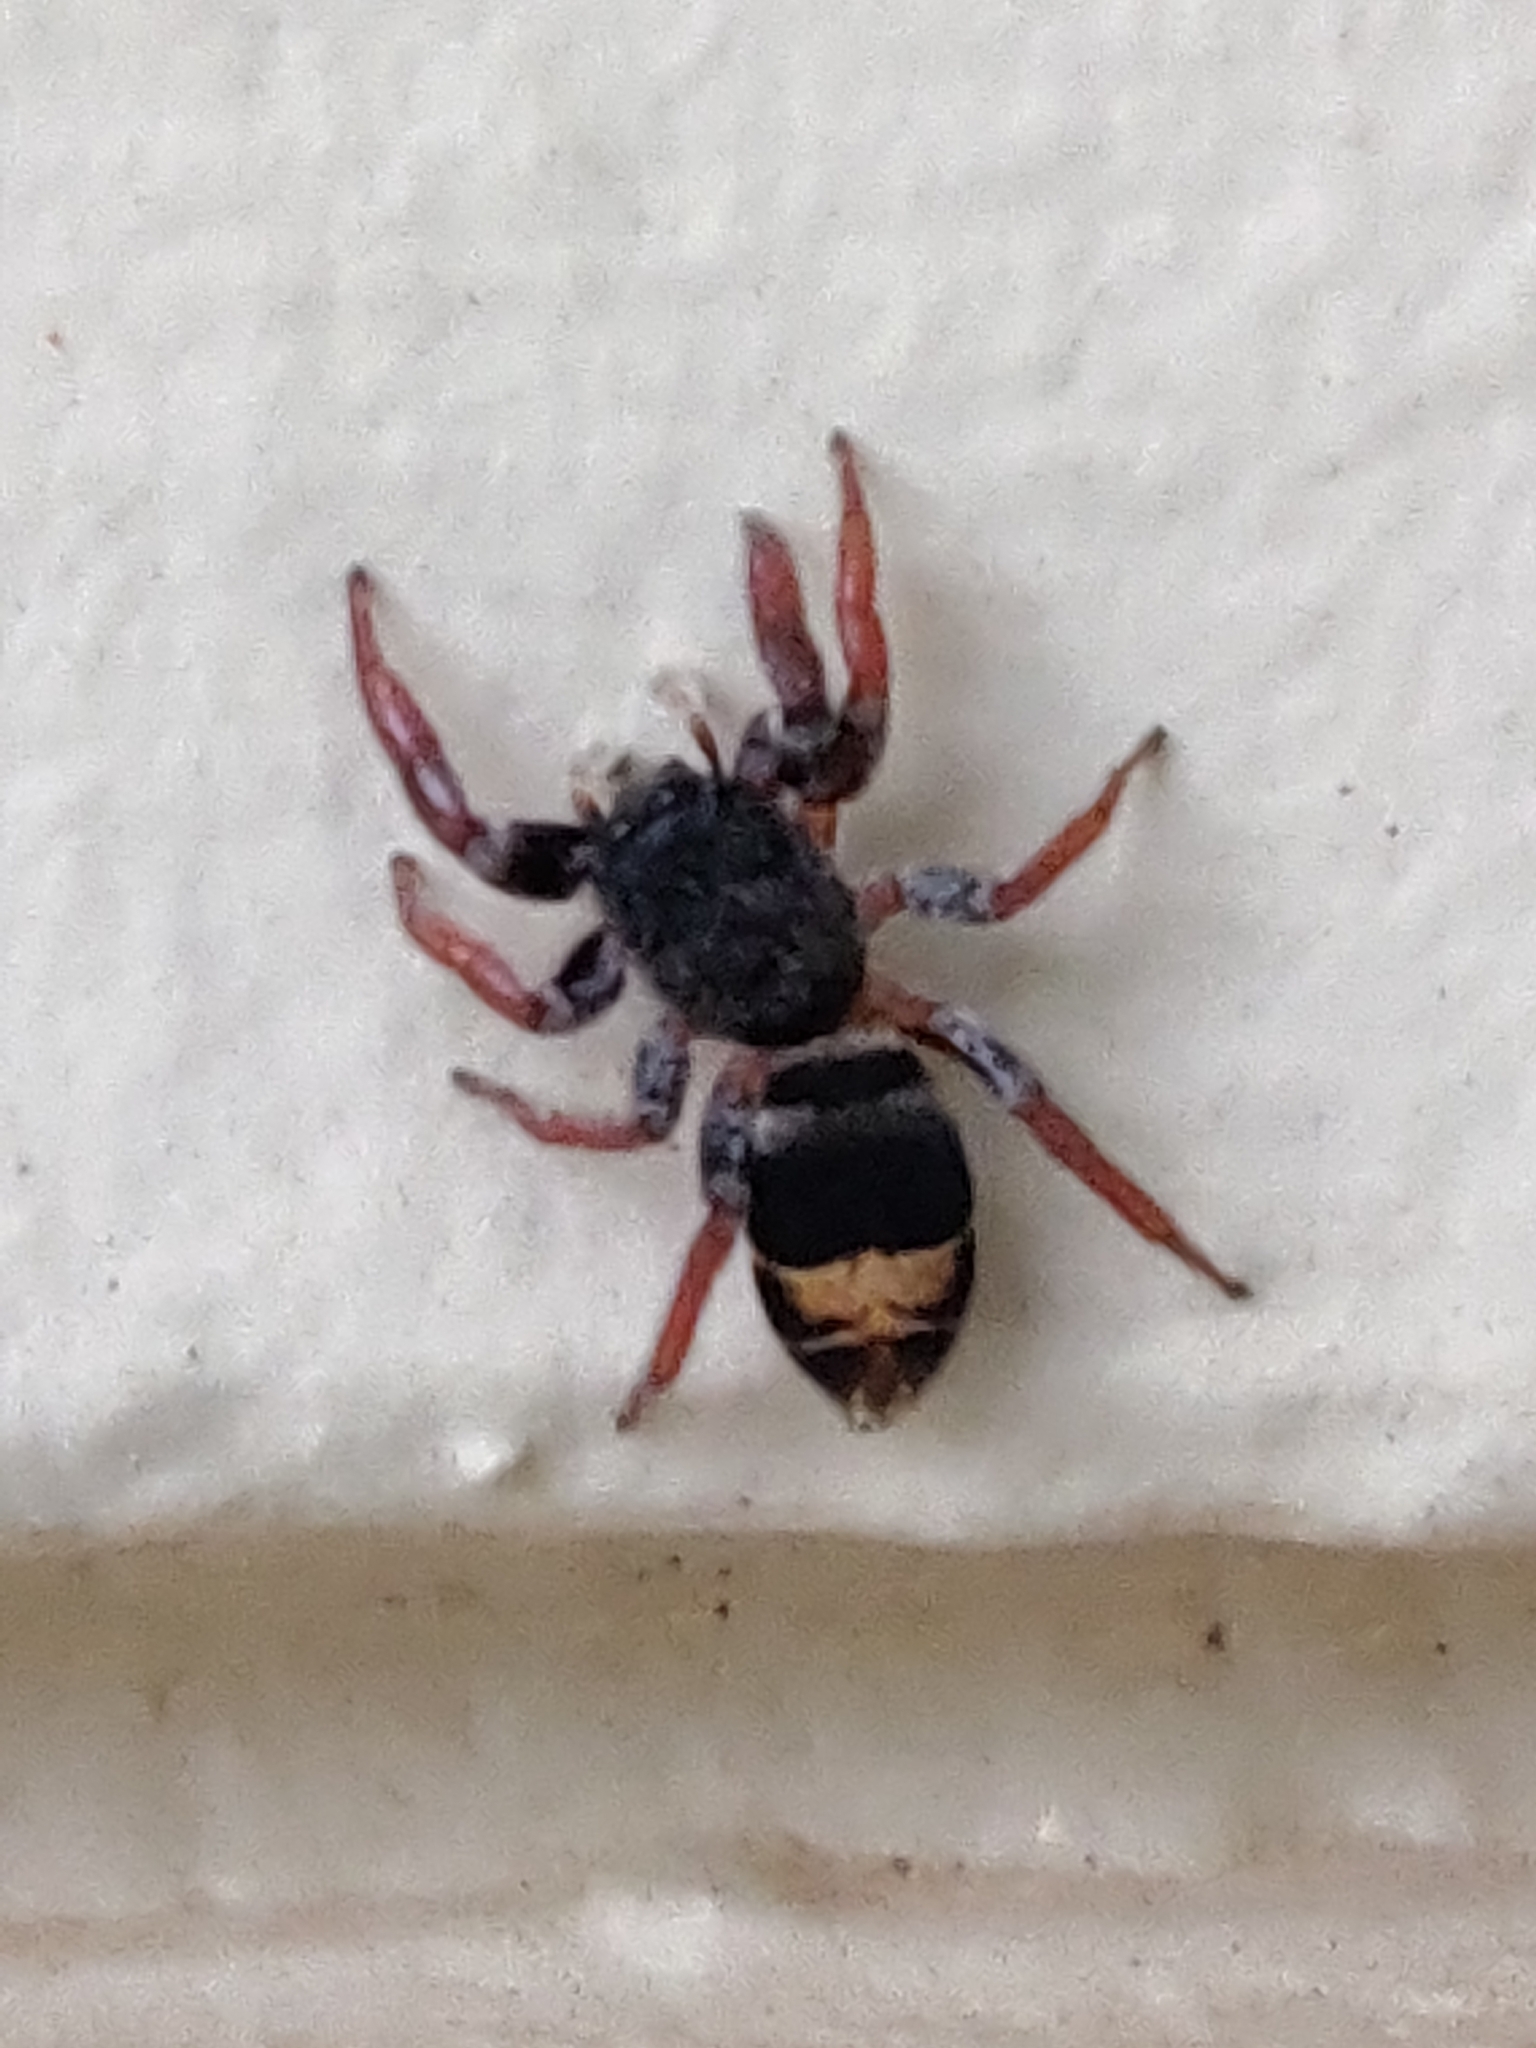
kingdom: Animalia
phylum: Arthropoda
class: Arachnida
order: Araneae
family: Salticidae
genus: Apricia
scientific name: Apricia jovialis
